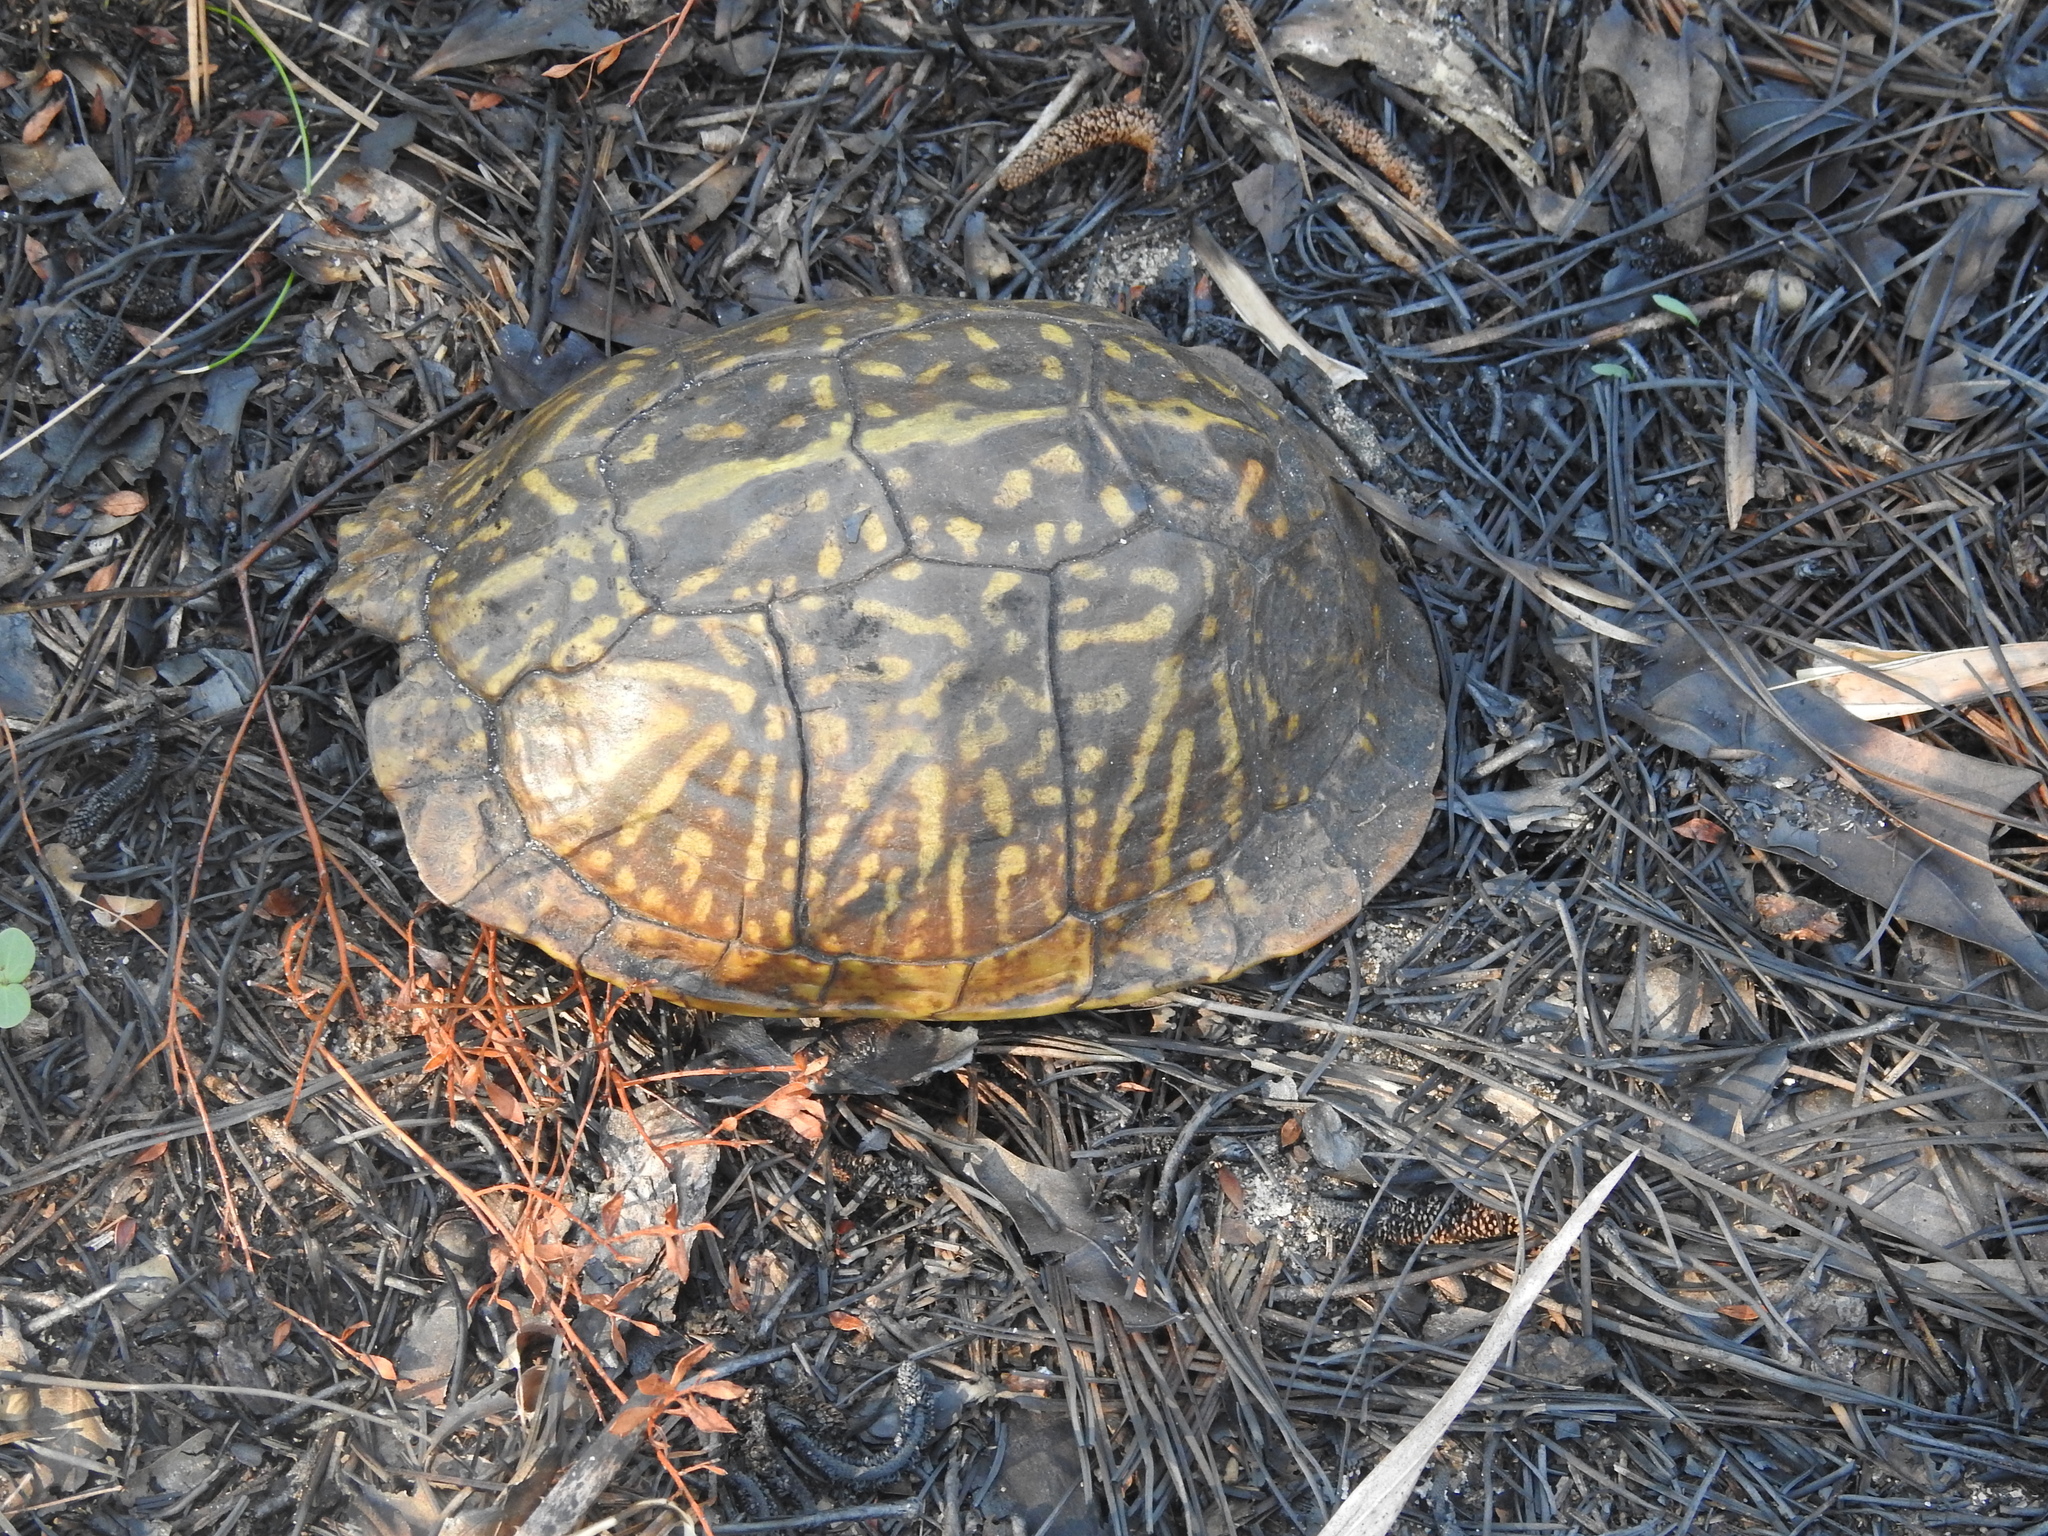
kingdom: Animalia
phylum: Chordata
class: Testudines
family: Emydidae
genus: Terrapene
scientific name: Terrapene carolina
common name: Common box turtle
